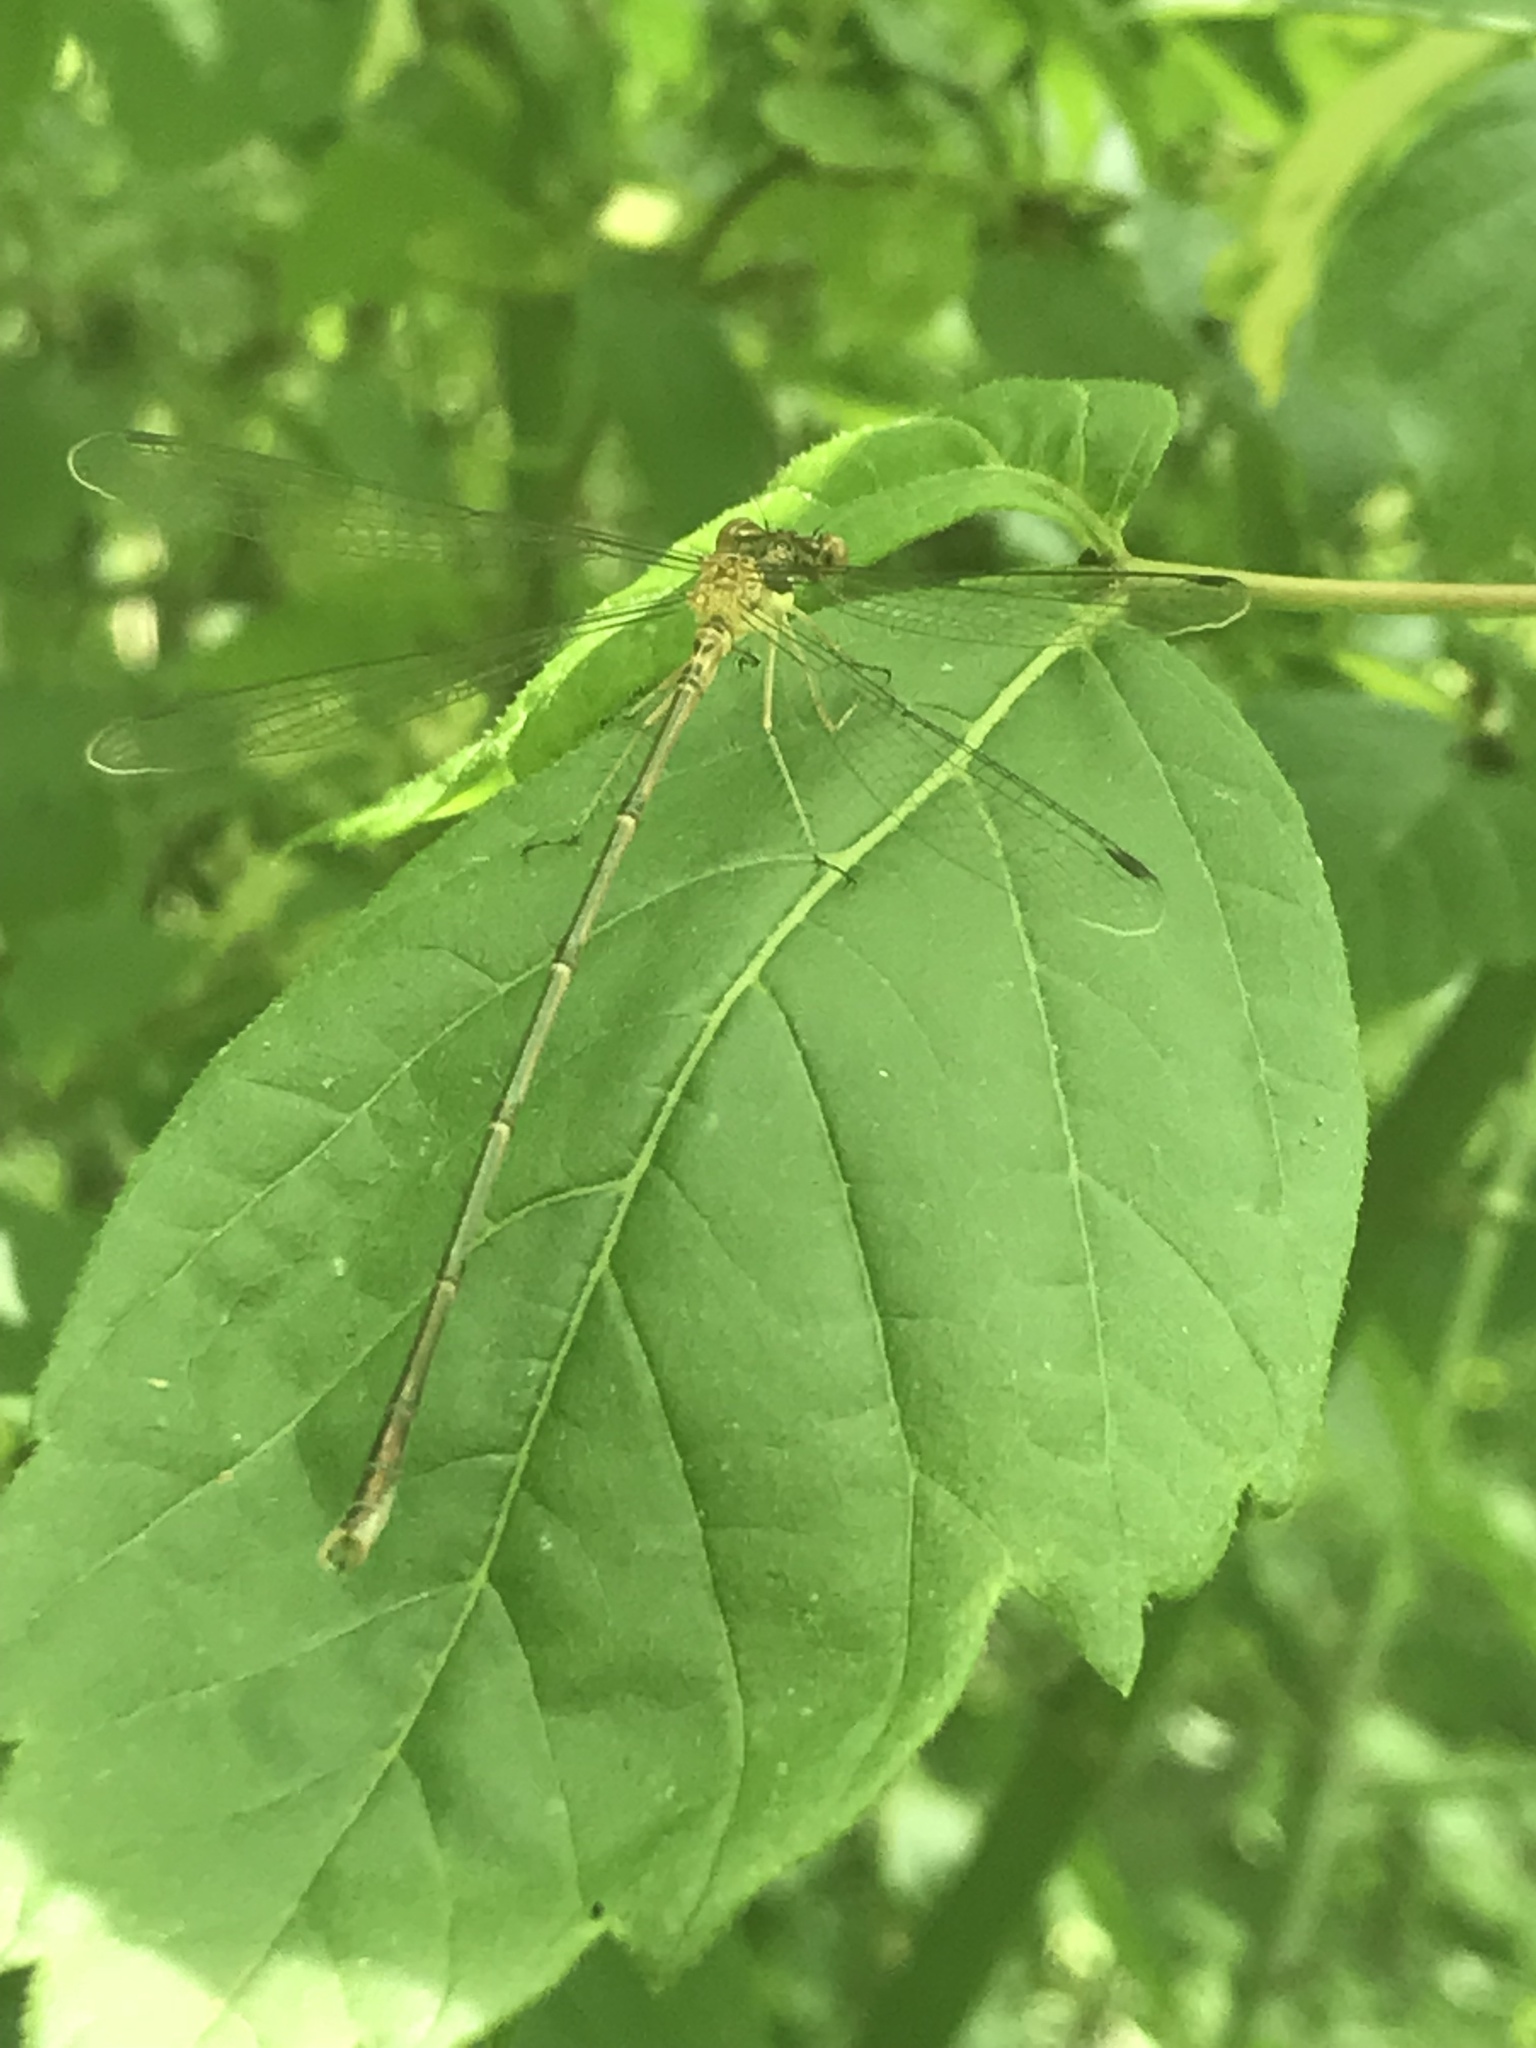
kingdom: Animalia
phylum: Arthropoda
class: Insecta
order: Odonata
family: Lestidae
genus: Lestes
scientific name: Lestes rectangularis
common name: Slender spreadwing
